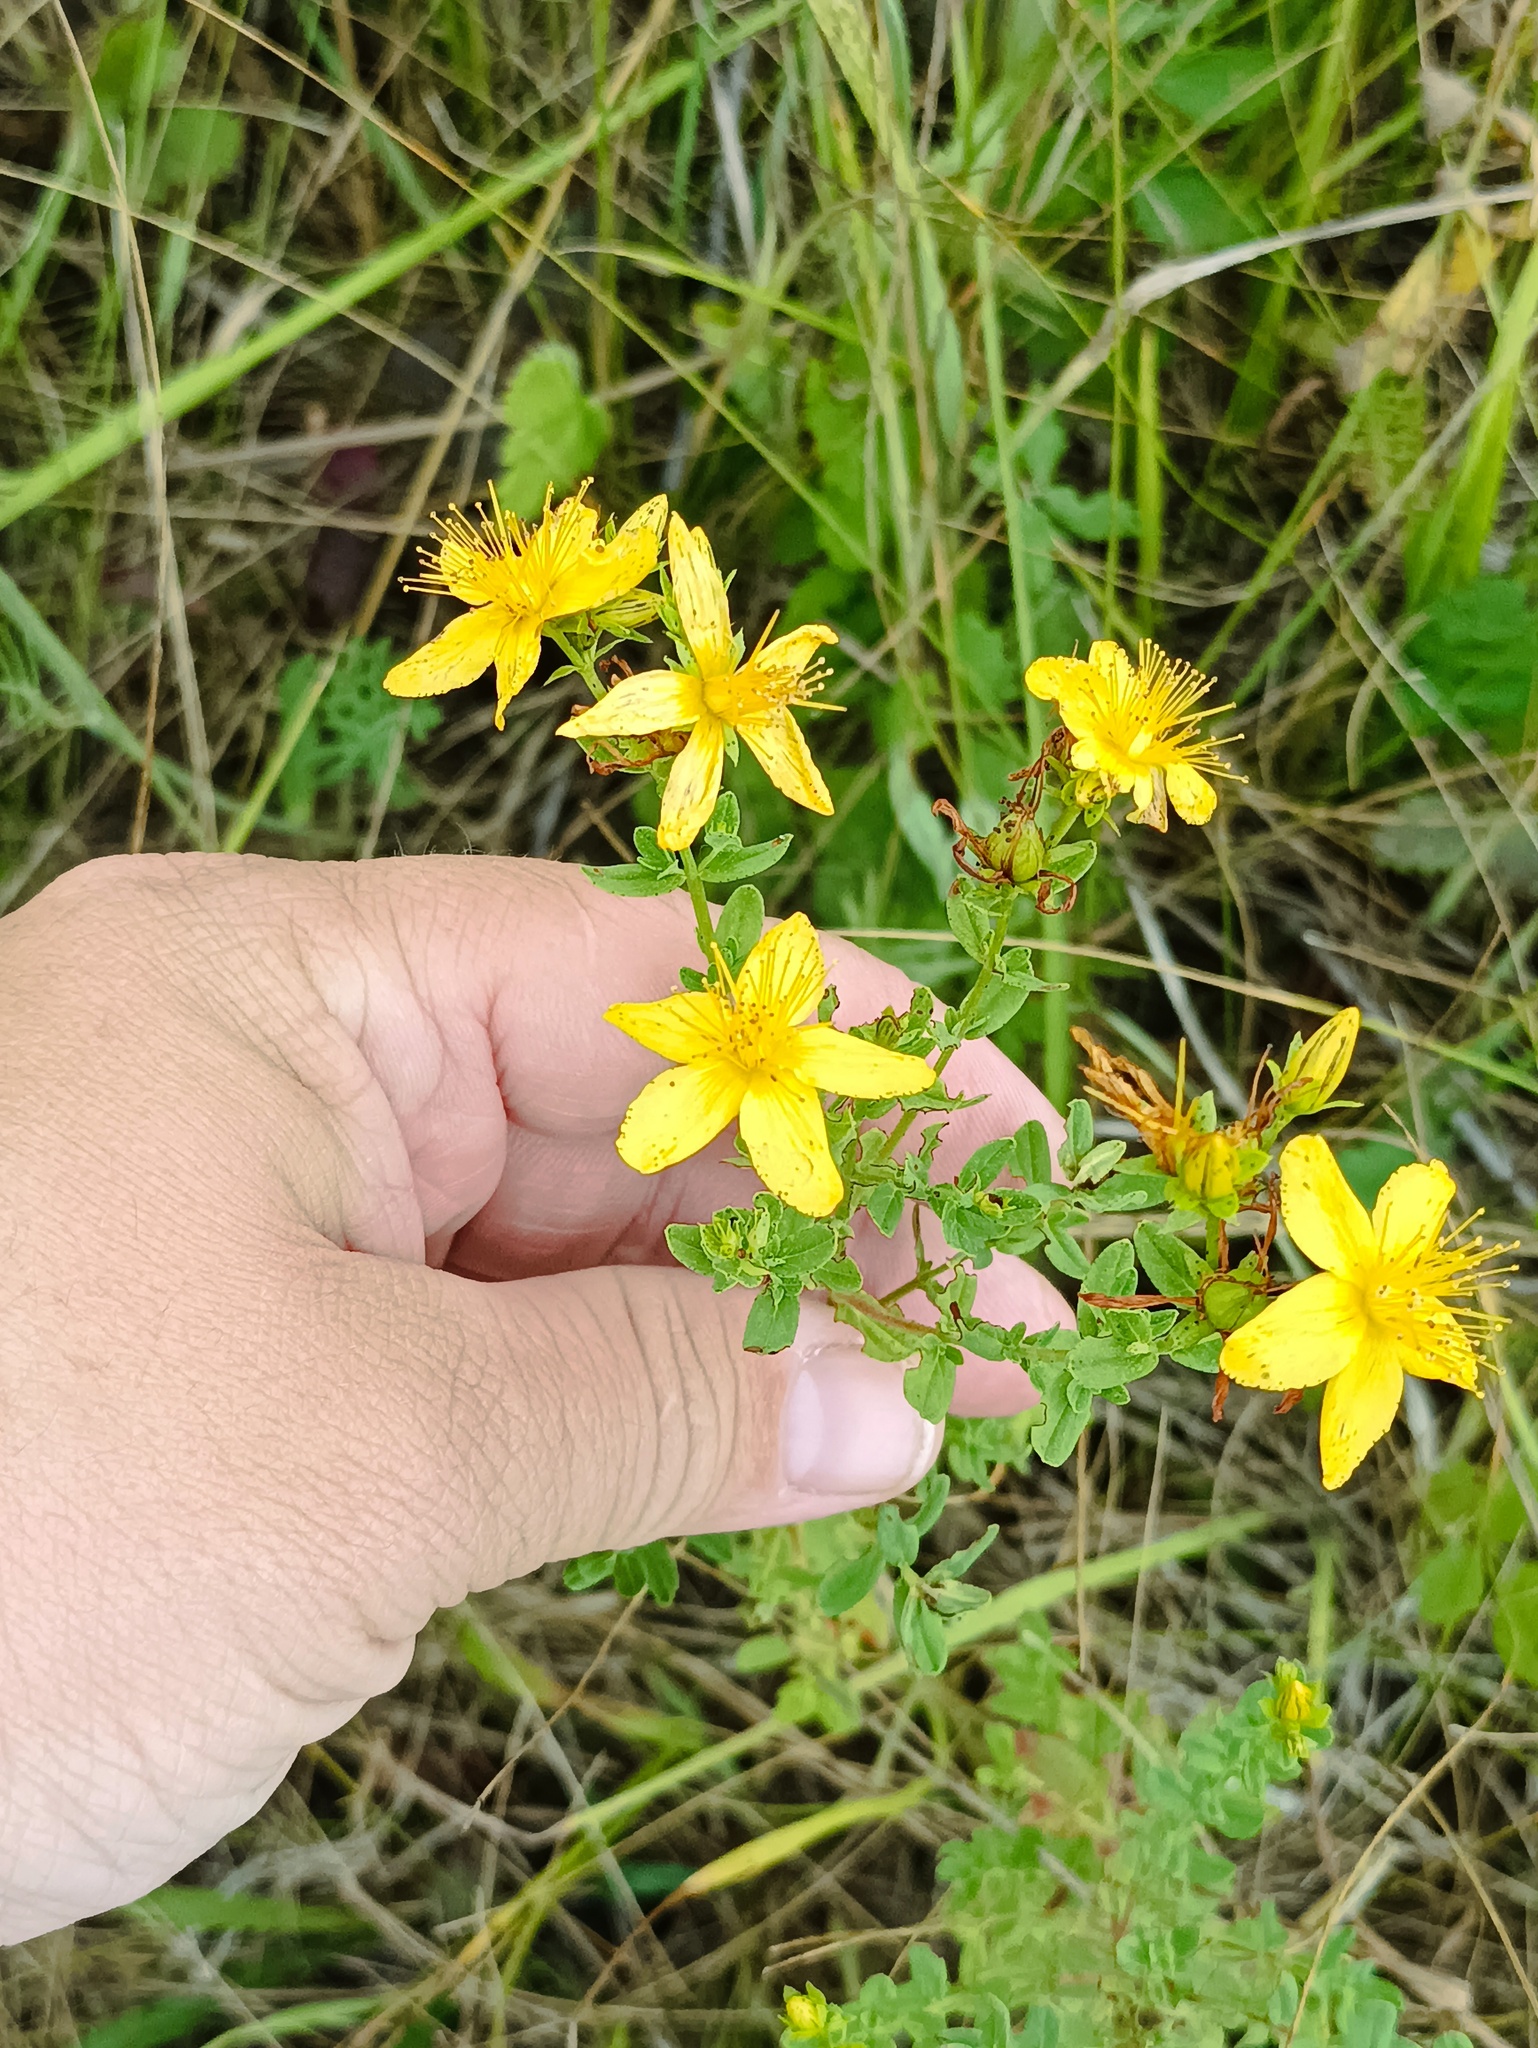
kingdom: Plantae
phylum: Tracheophyta
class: Magnoliopsida
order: Malpighiales
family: Hypericaceae
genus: Hypericum
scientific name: Hypericum perforatum
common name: Common st. johnswort
